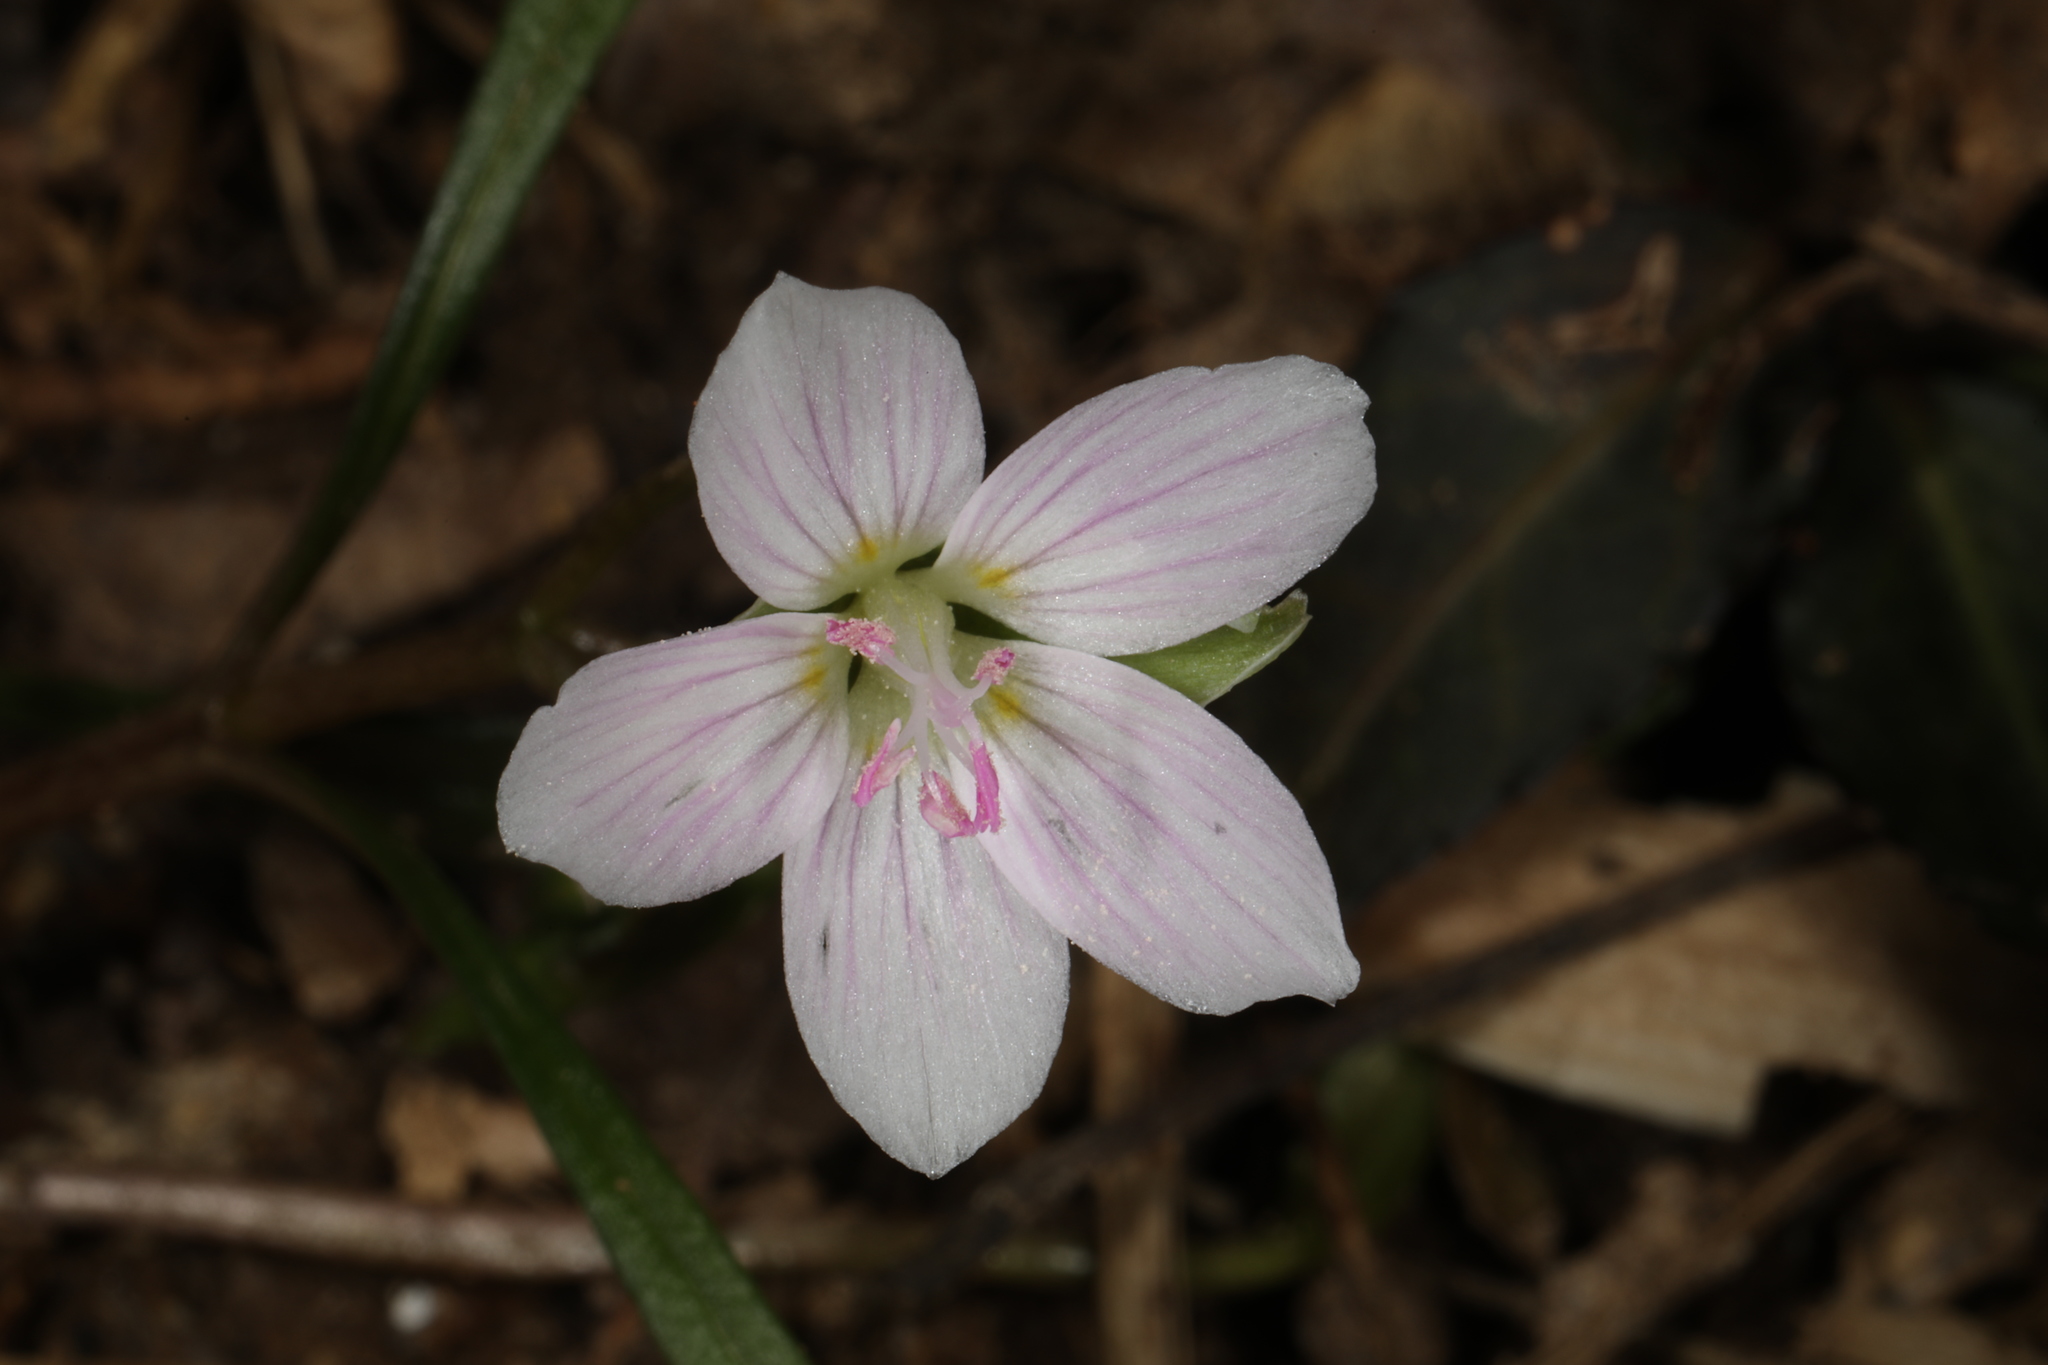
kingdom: Plantae
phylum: Tracheophyta
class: Magnoliopsida
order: Caryophyllales
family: Montiaceae
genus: Claytonia
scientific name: Claytonia virginica
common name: Virginia springbeauty
